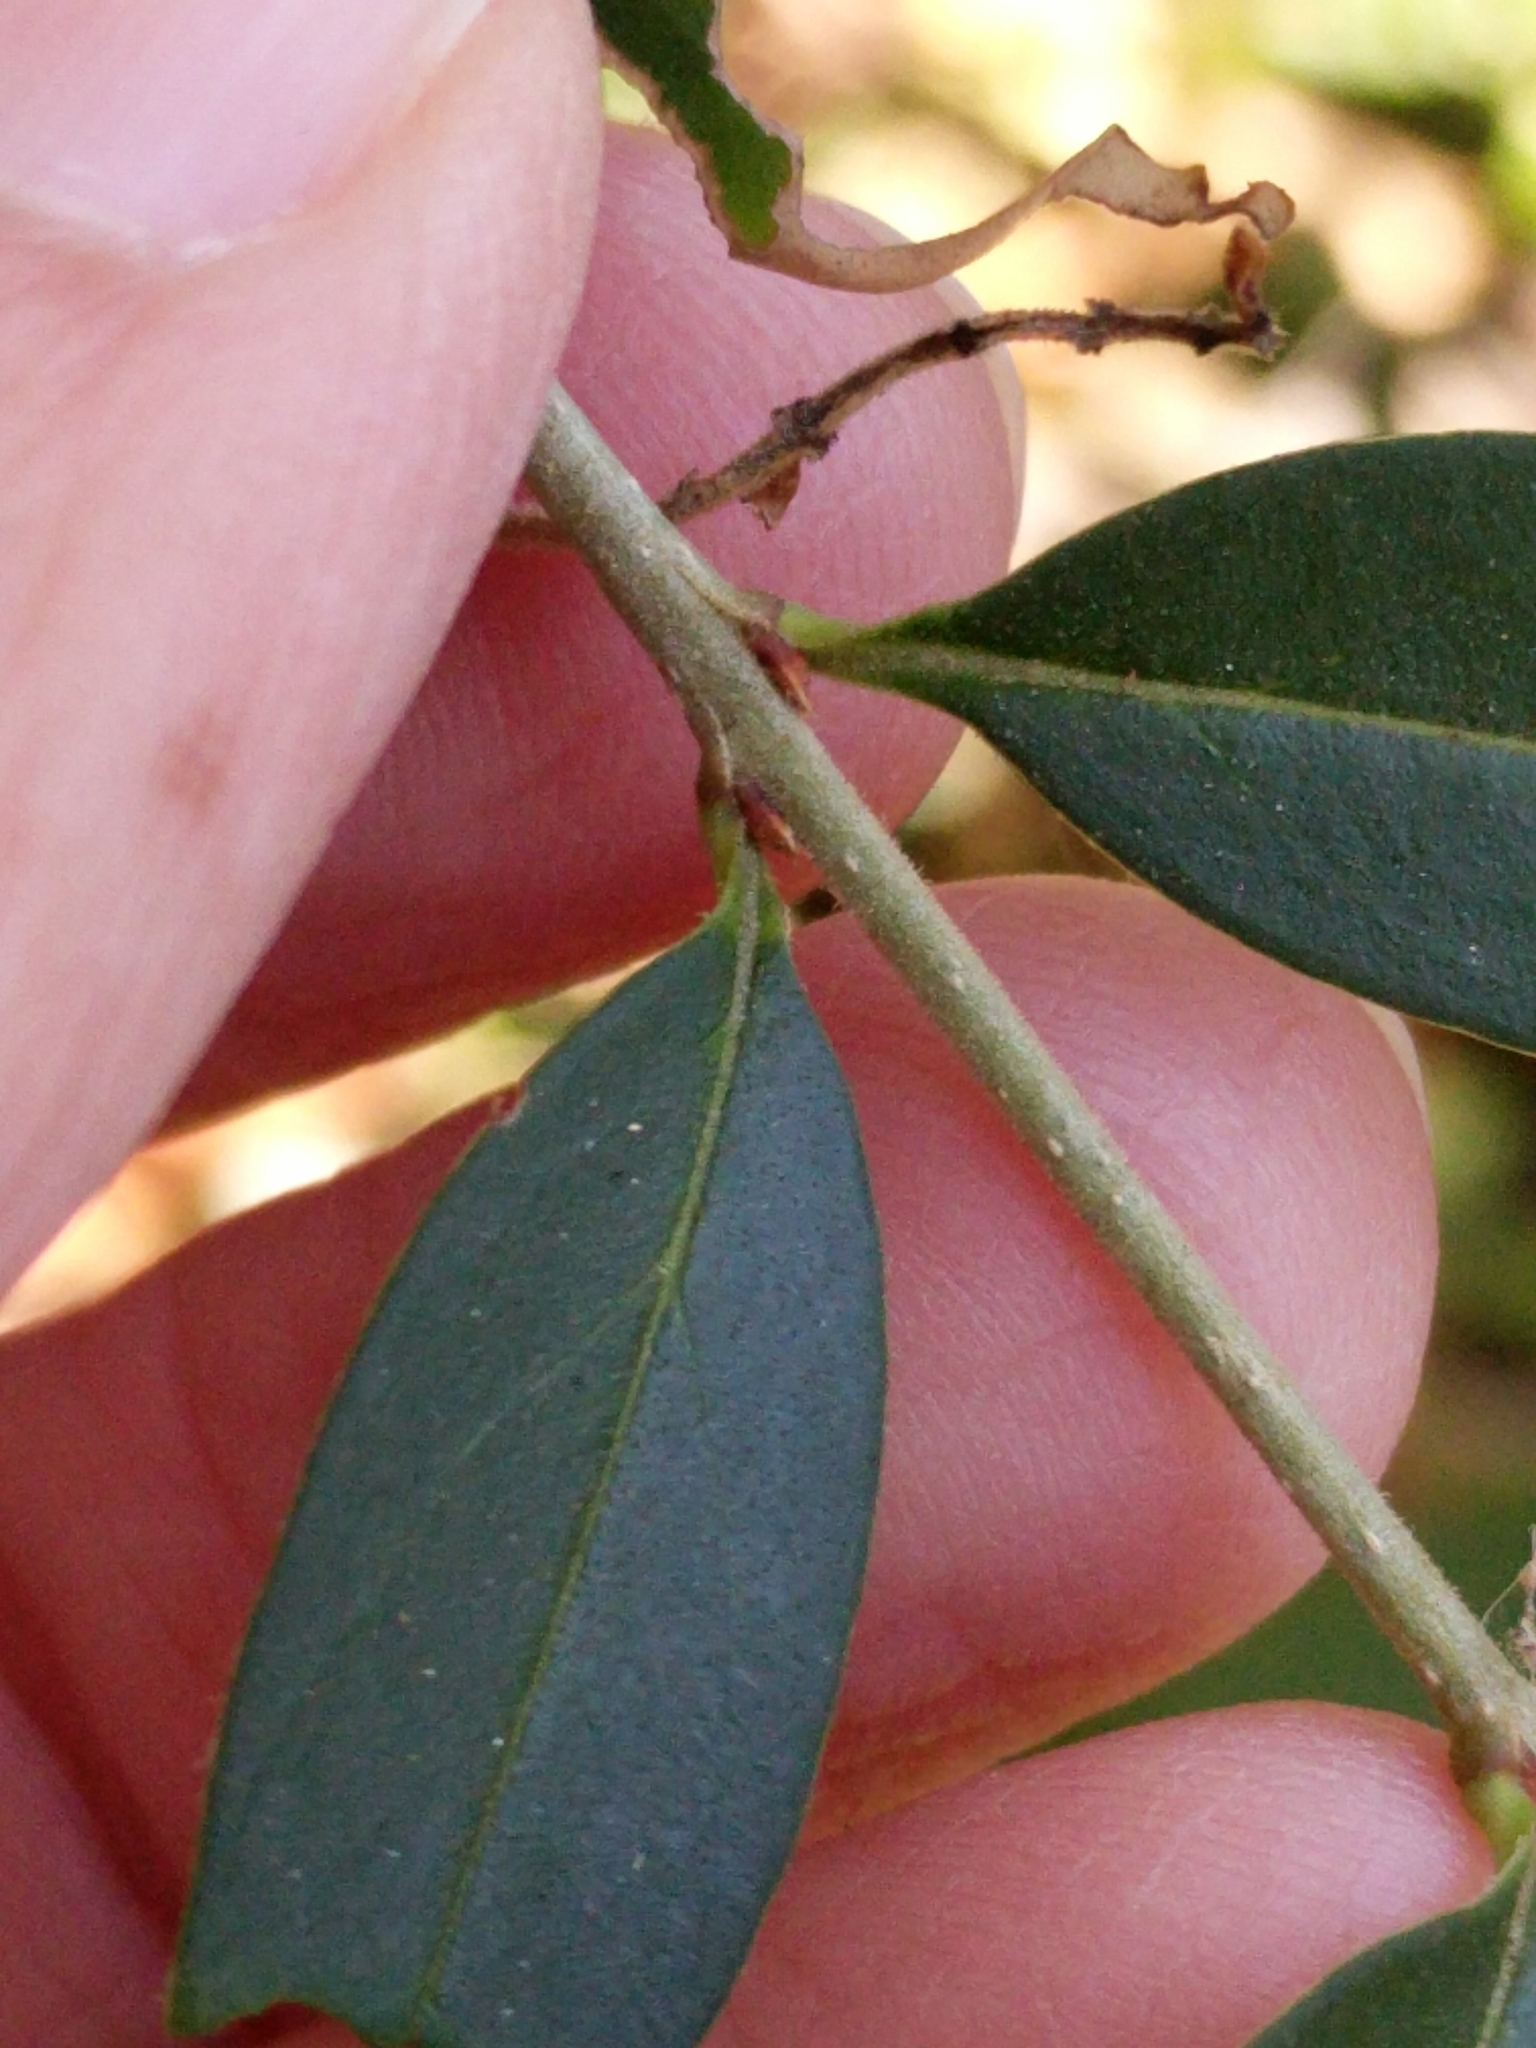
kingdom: Plantae
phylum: Tracheophyta
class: Magnoliopsida
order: Lamiales
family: Oleaceae
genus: Ligustrum
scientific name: Ligustrum quihoui
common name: Waxyleaf privet
